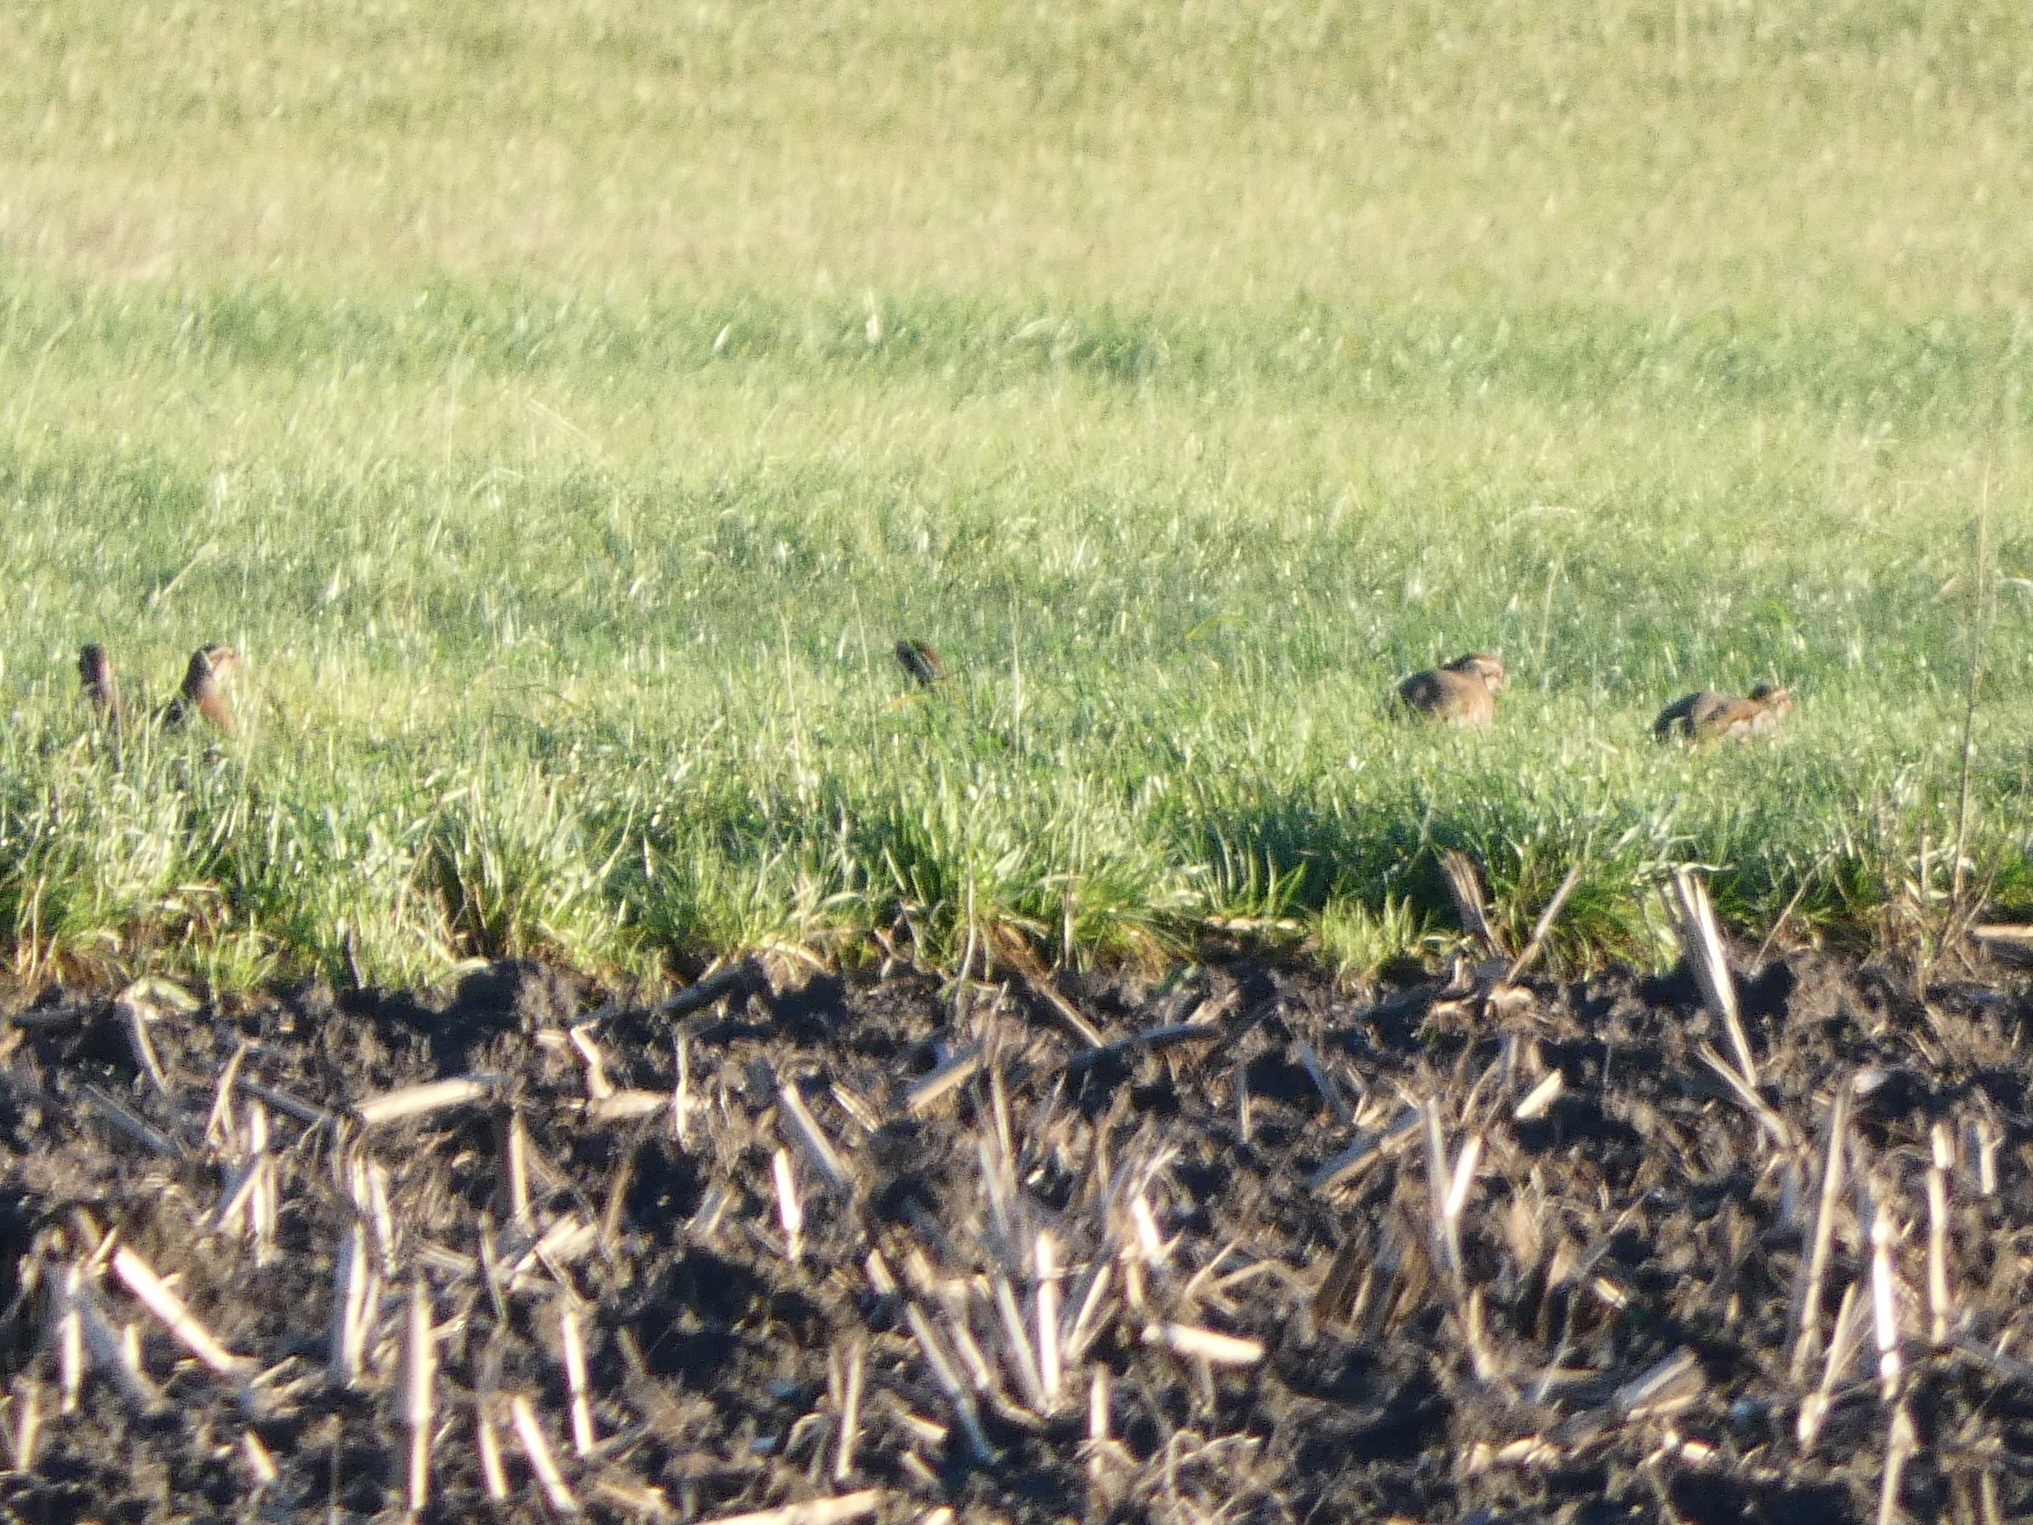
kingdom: Animalia
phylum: Chordata
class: Aves
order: Galliformes
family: Phasianidae
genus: Alectoris
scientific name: Alectoris rufa
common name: Red-legged partridge
